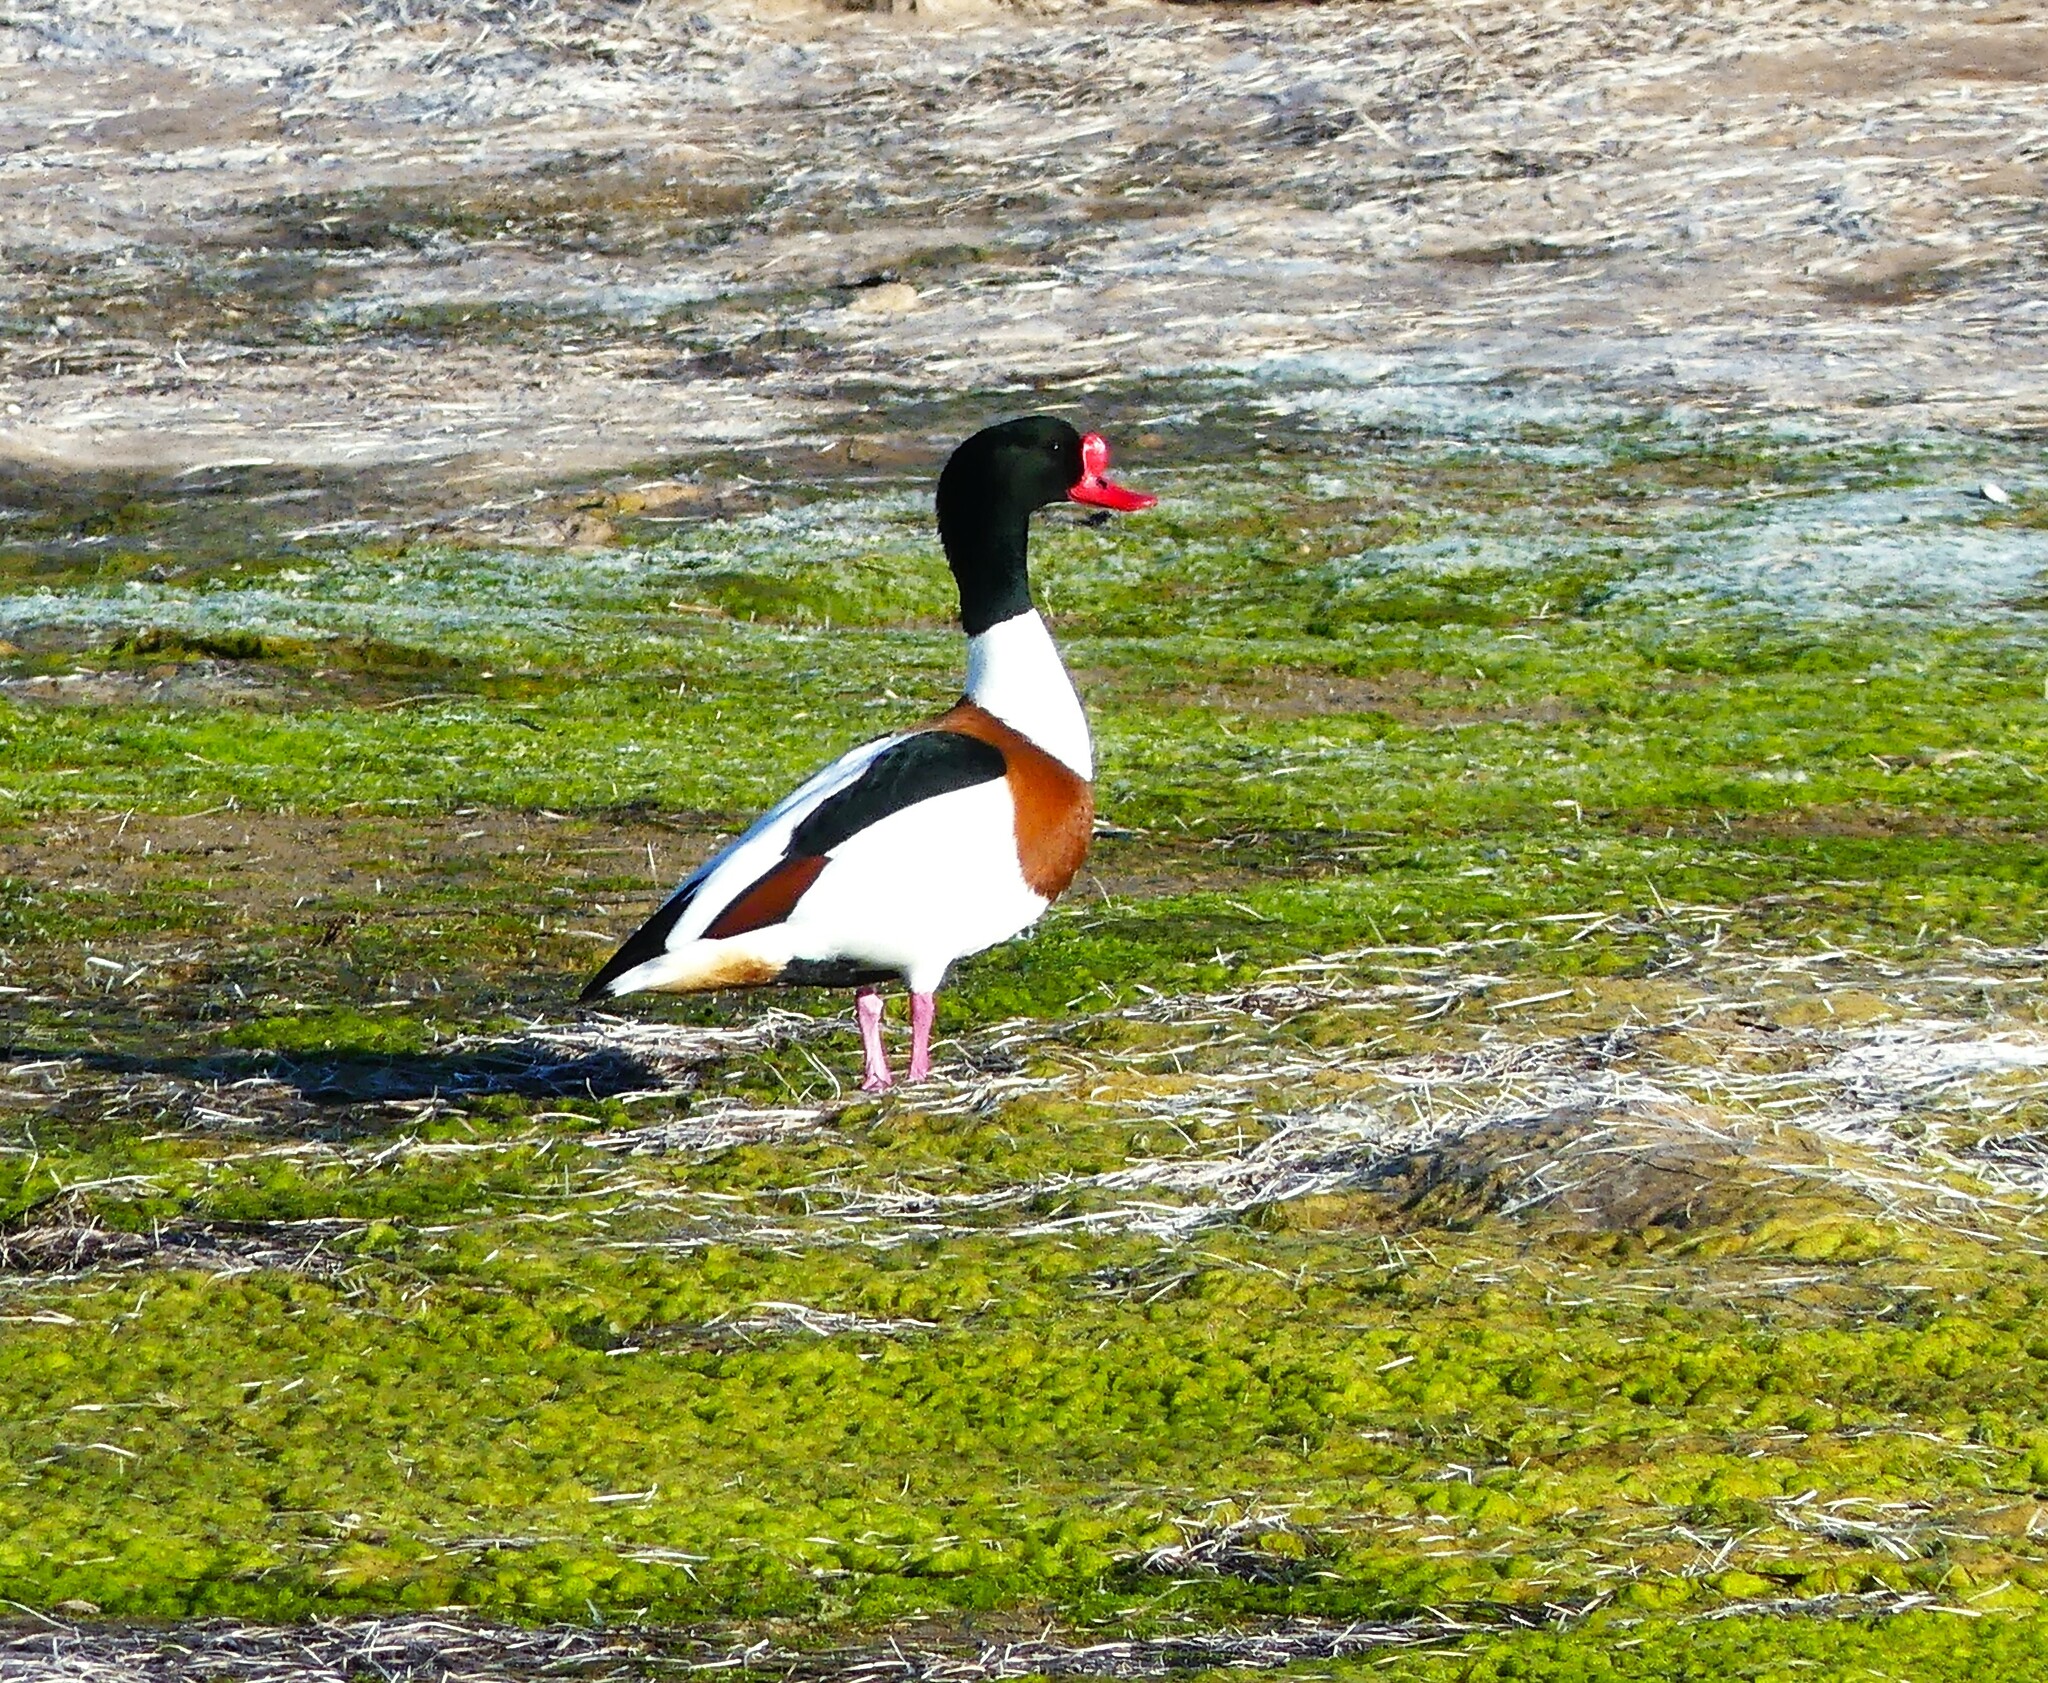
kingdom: Animalia
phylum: Chordata
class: Aves
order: Anseriformes
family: Anatidae
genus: Tadorna
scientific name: Tadorna tadorna
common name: Common shelduck
